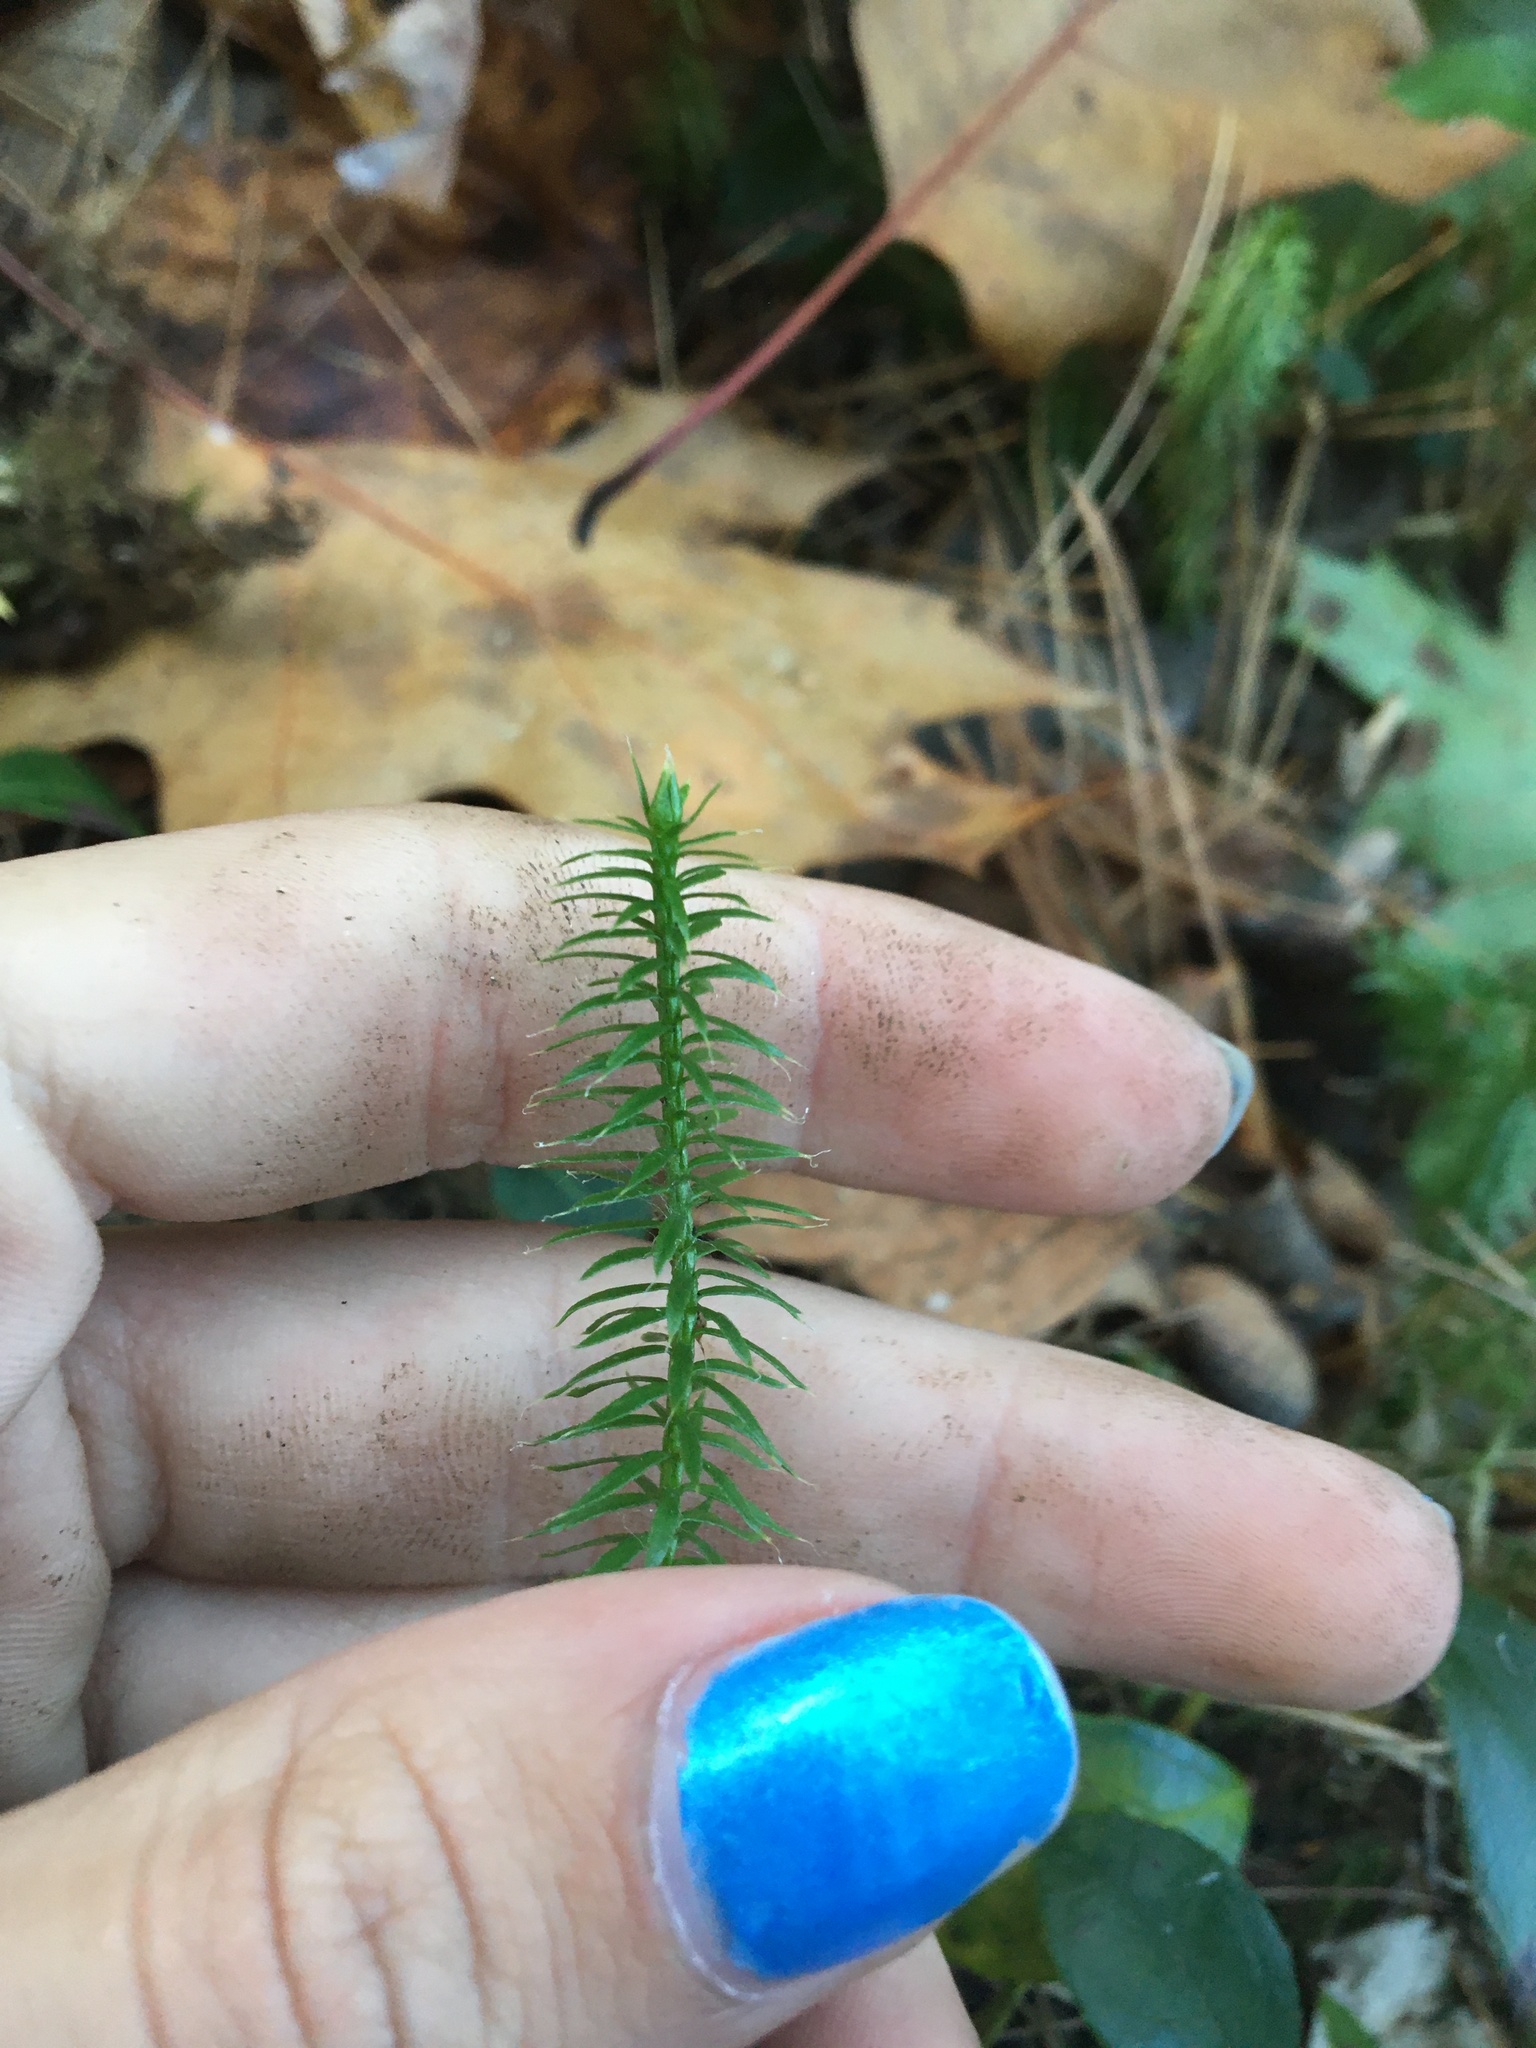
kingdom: Plantae
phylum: Tracheophyta
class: Lycopodiopsida
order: Lycopodiales
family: Lycopodiaceae
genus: Spinulum
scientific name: Spinulum annotinum
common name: Interrupted club-moss
